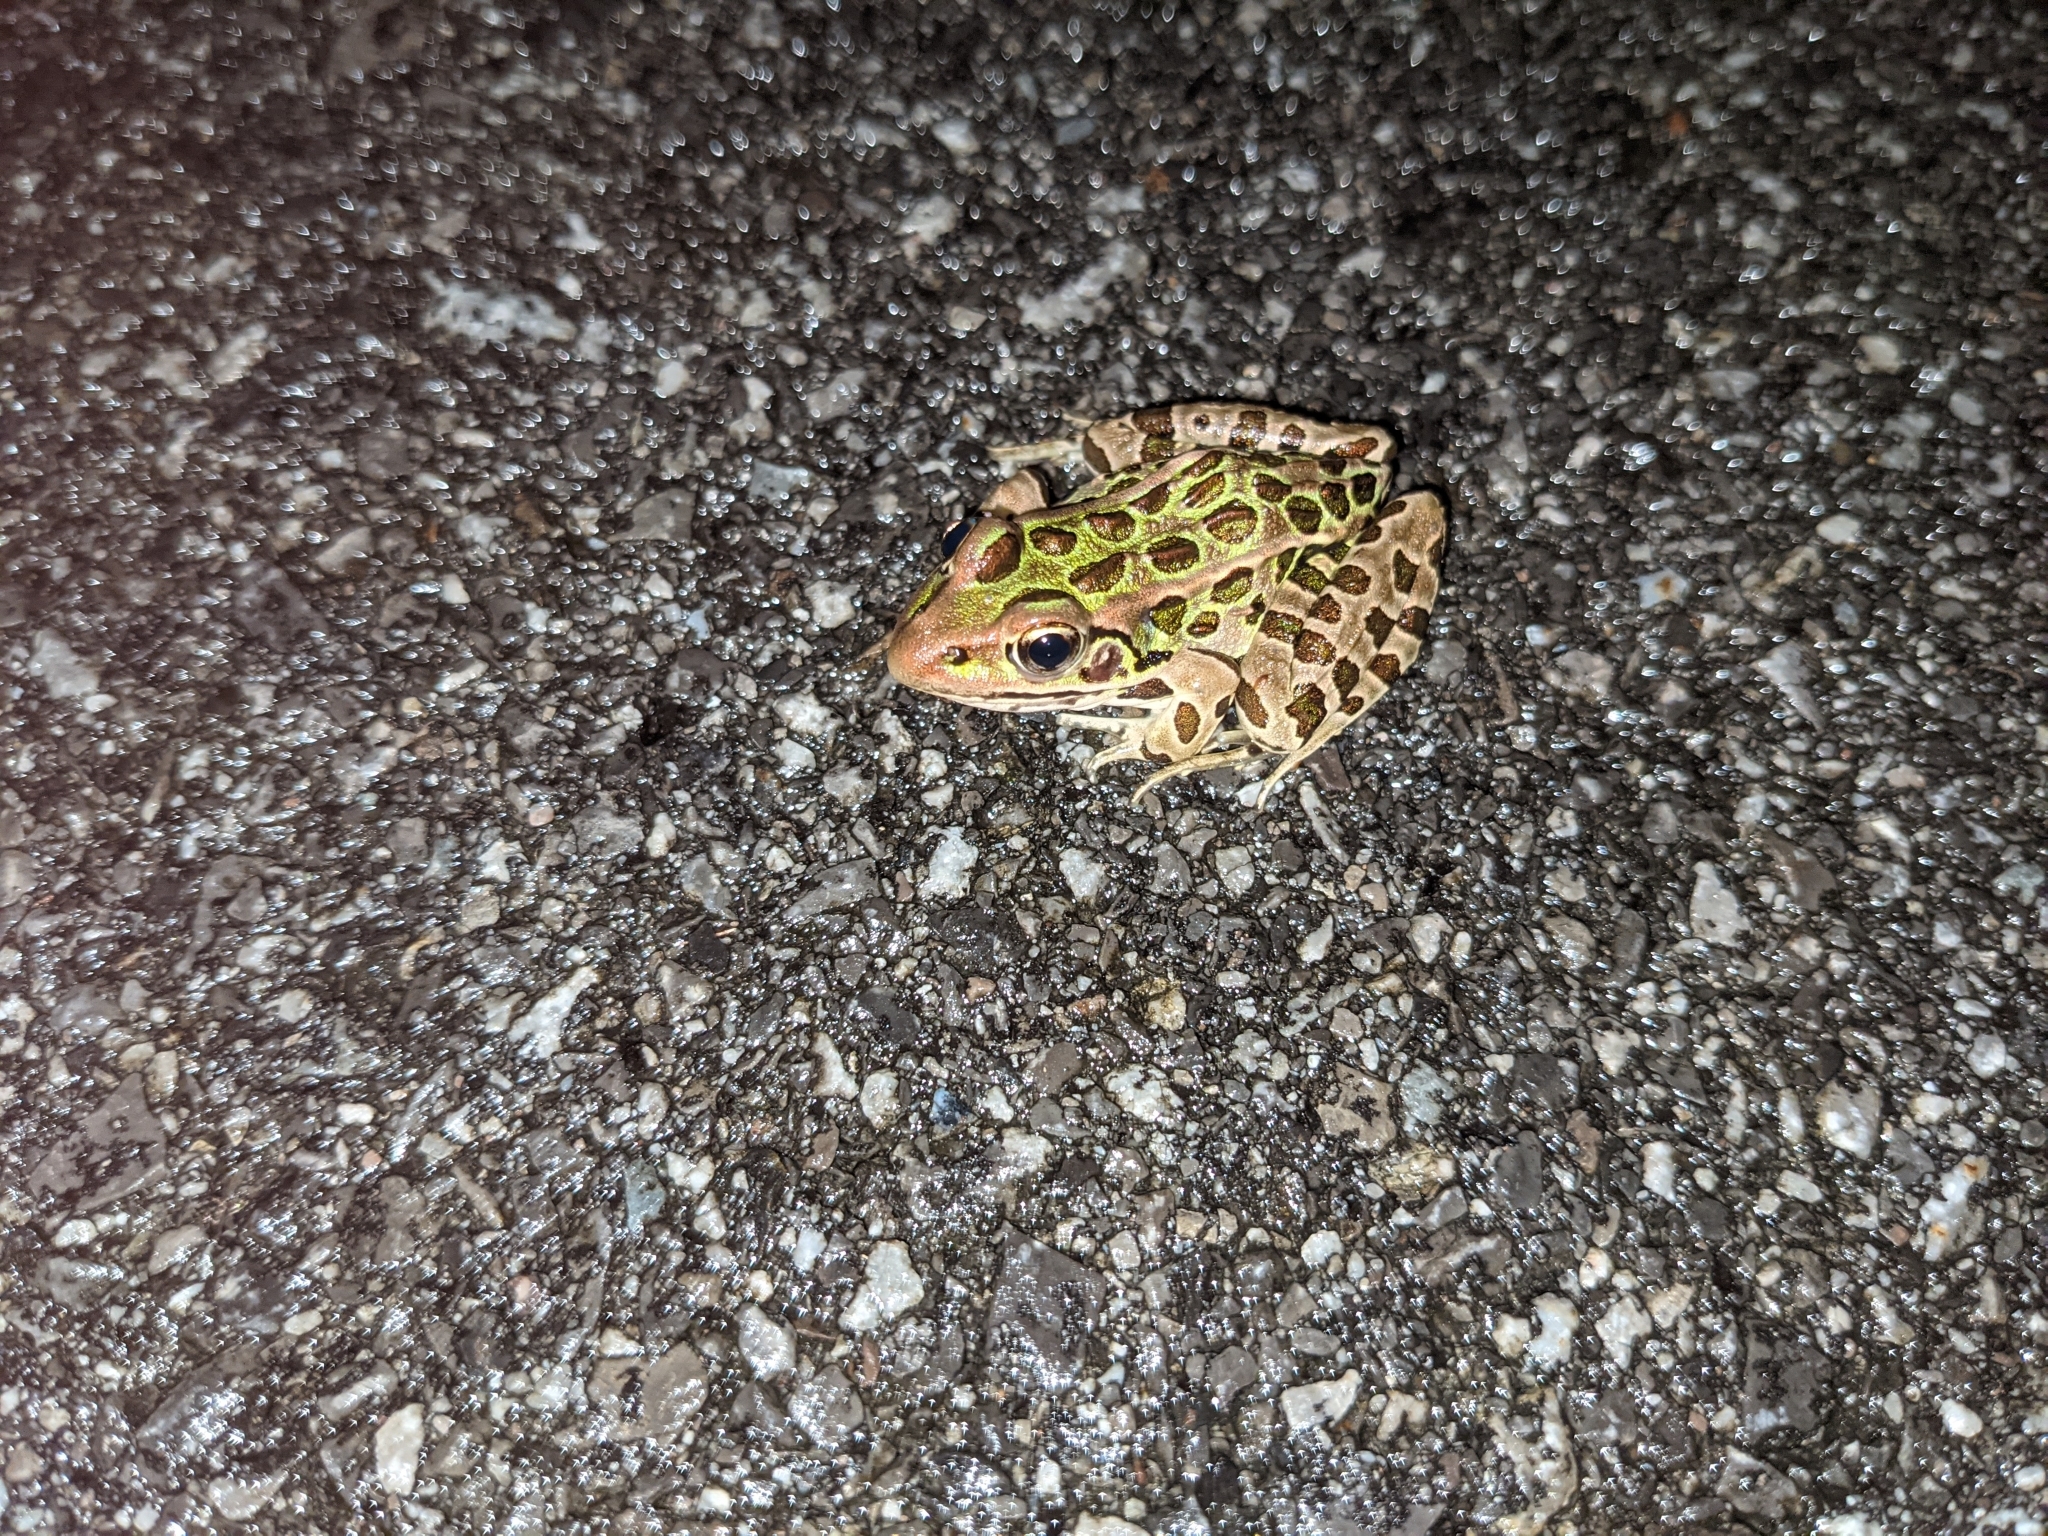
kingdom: Animalia
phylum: Chordata
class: Amphibia
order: Anura
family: Ranidae
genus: Lithobates
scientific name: Lithobates pipiens
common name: Northern leopard frog
